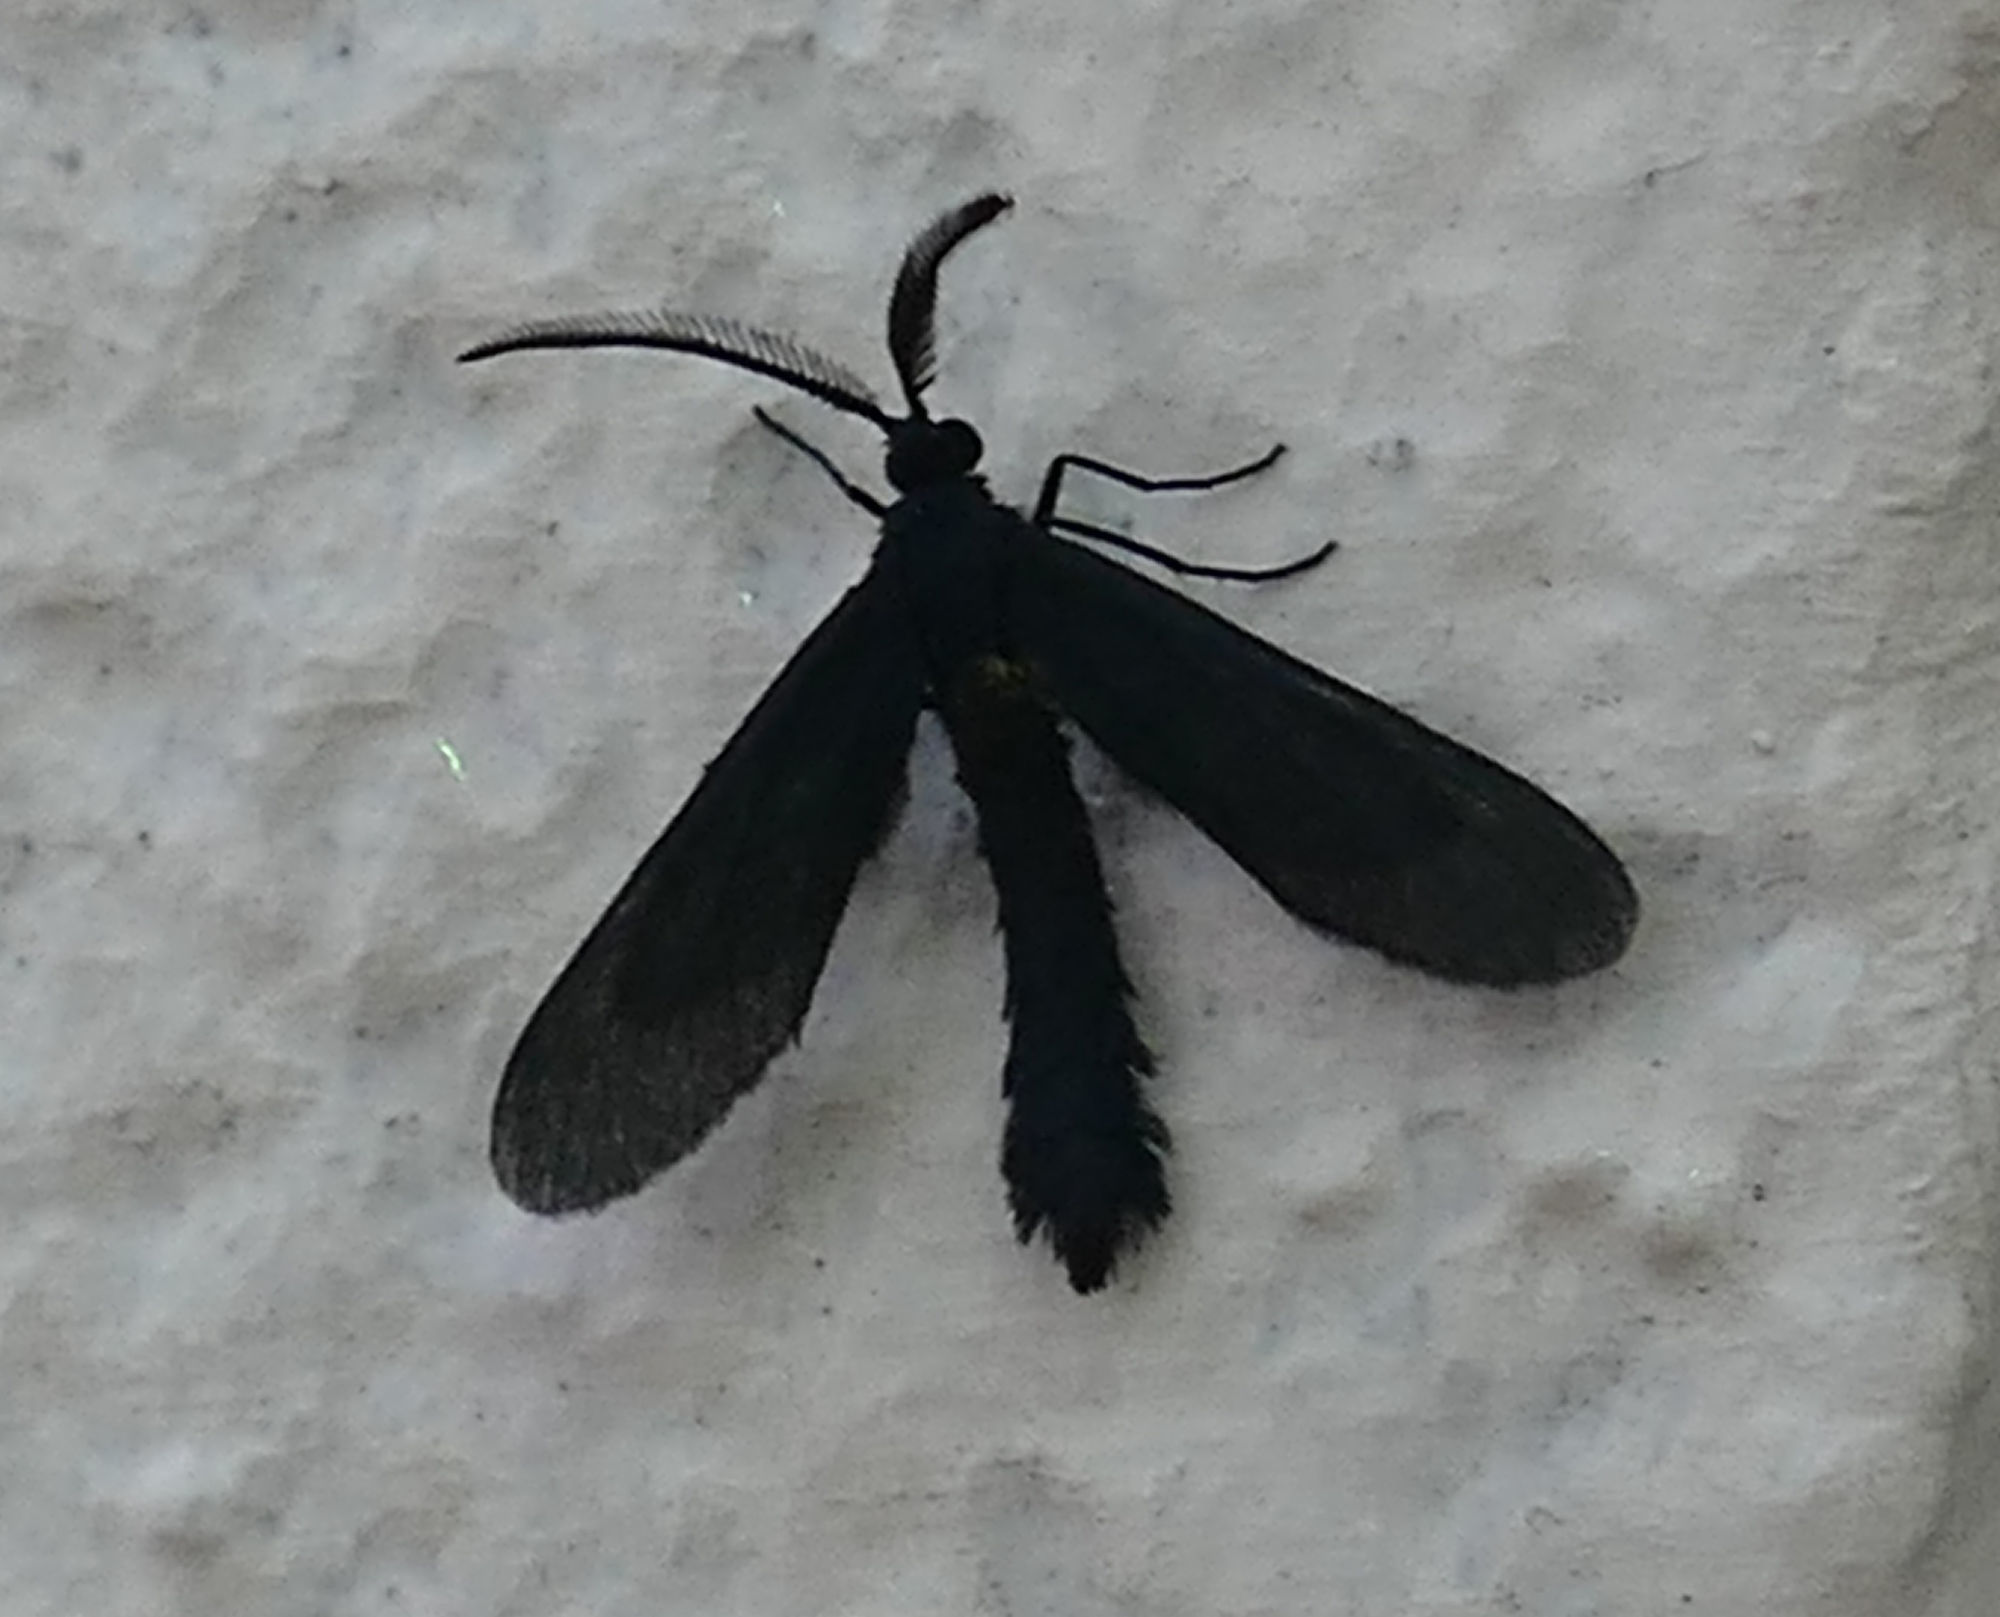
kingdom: Animalia
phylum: Arthropoda
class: Insecta
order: Lepidoptera
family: Zygaenidae
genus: Harrisina
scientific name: Harrisina coracina
